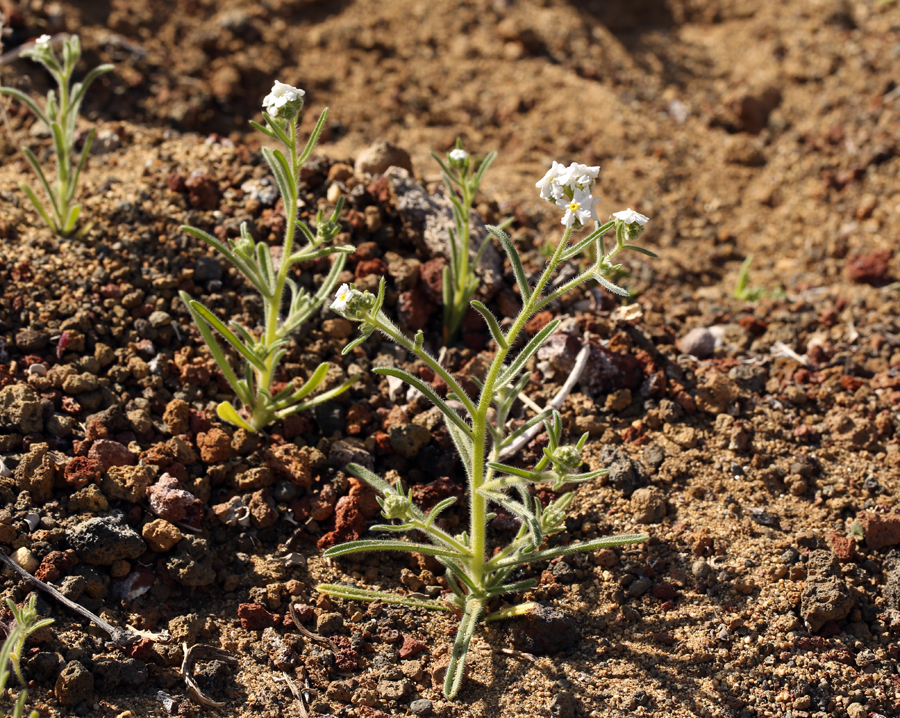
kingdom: Plantae
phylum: Tracheophyta
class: Magnoliopsida
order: Boraginales
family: Boraginaceae
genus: Cryptantha
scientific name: Cryptantha utahensis
